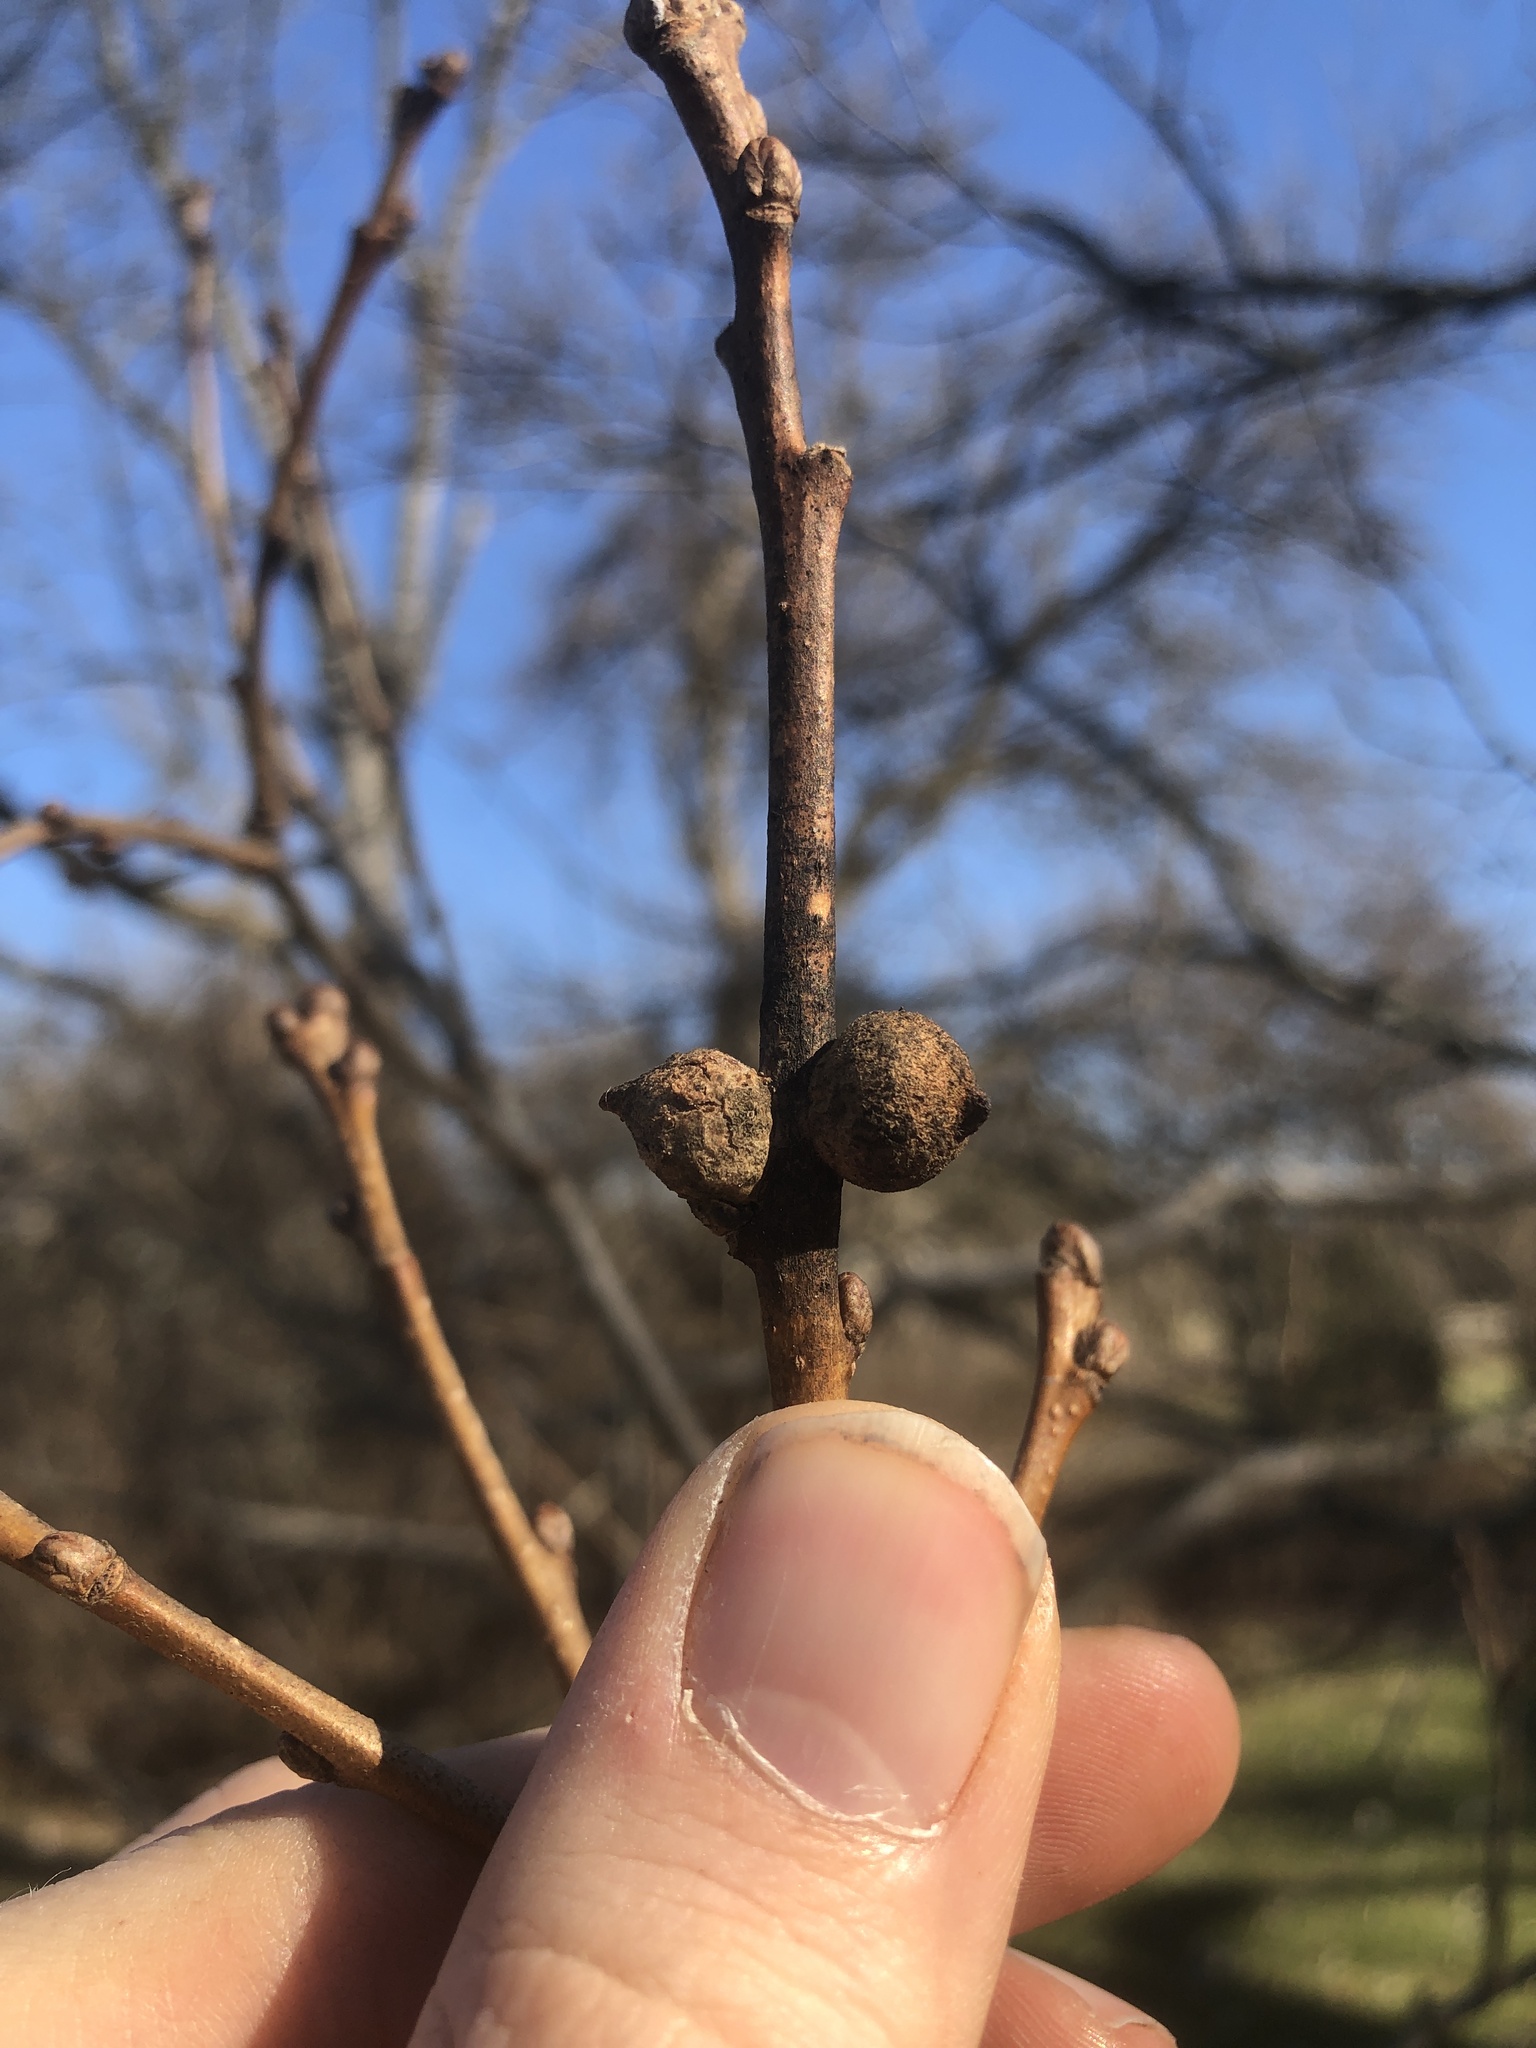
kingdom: Animalia
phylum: Arthropoda
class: Insecta
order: Hymenoptera
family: Cynipidae
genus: Disholcaspis
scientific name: Disholcaspis
